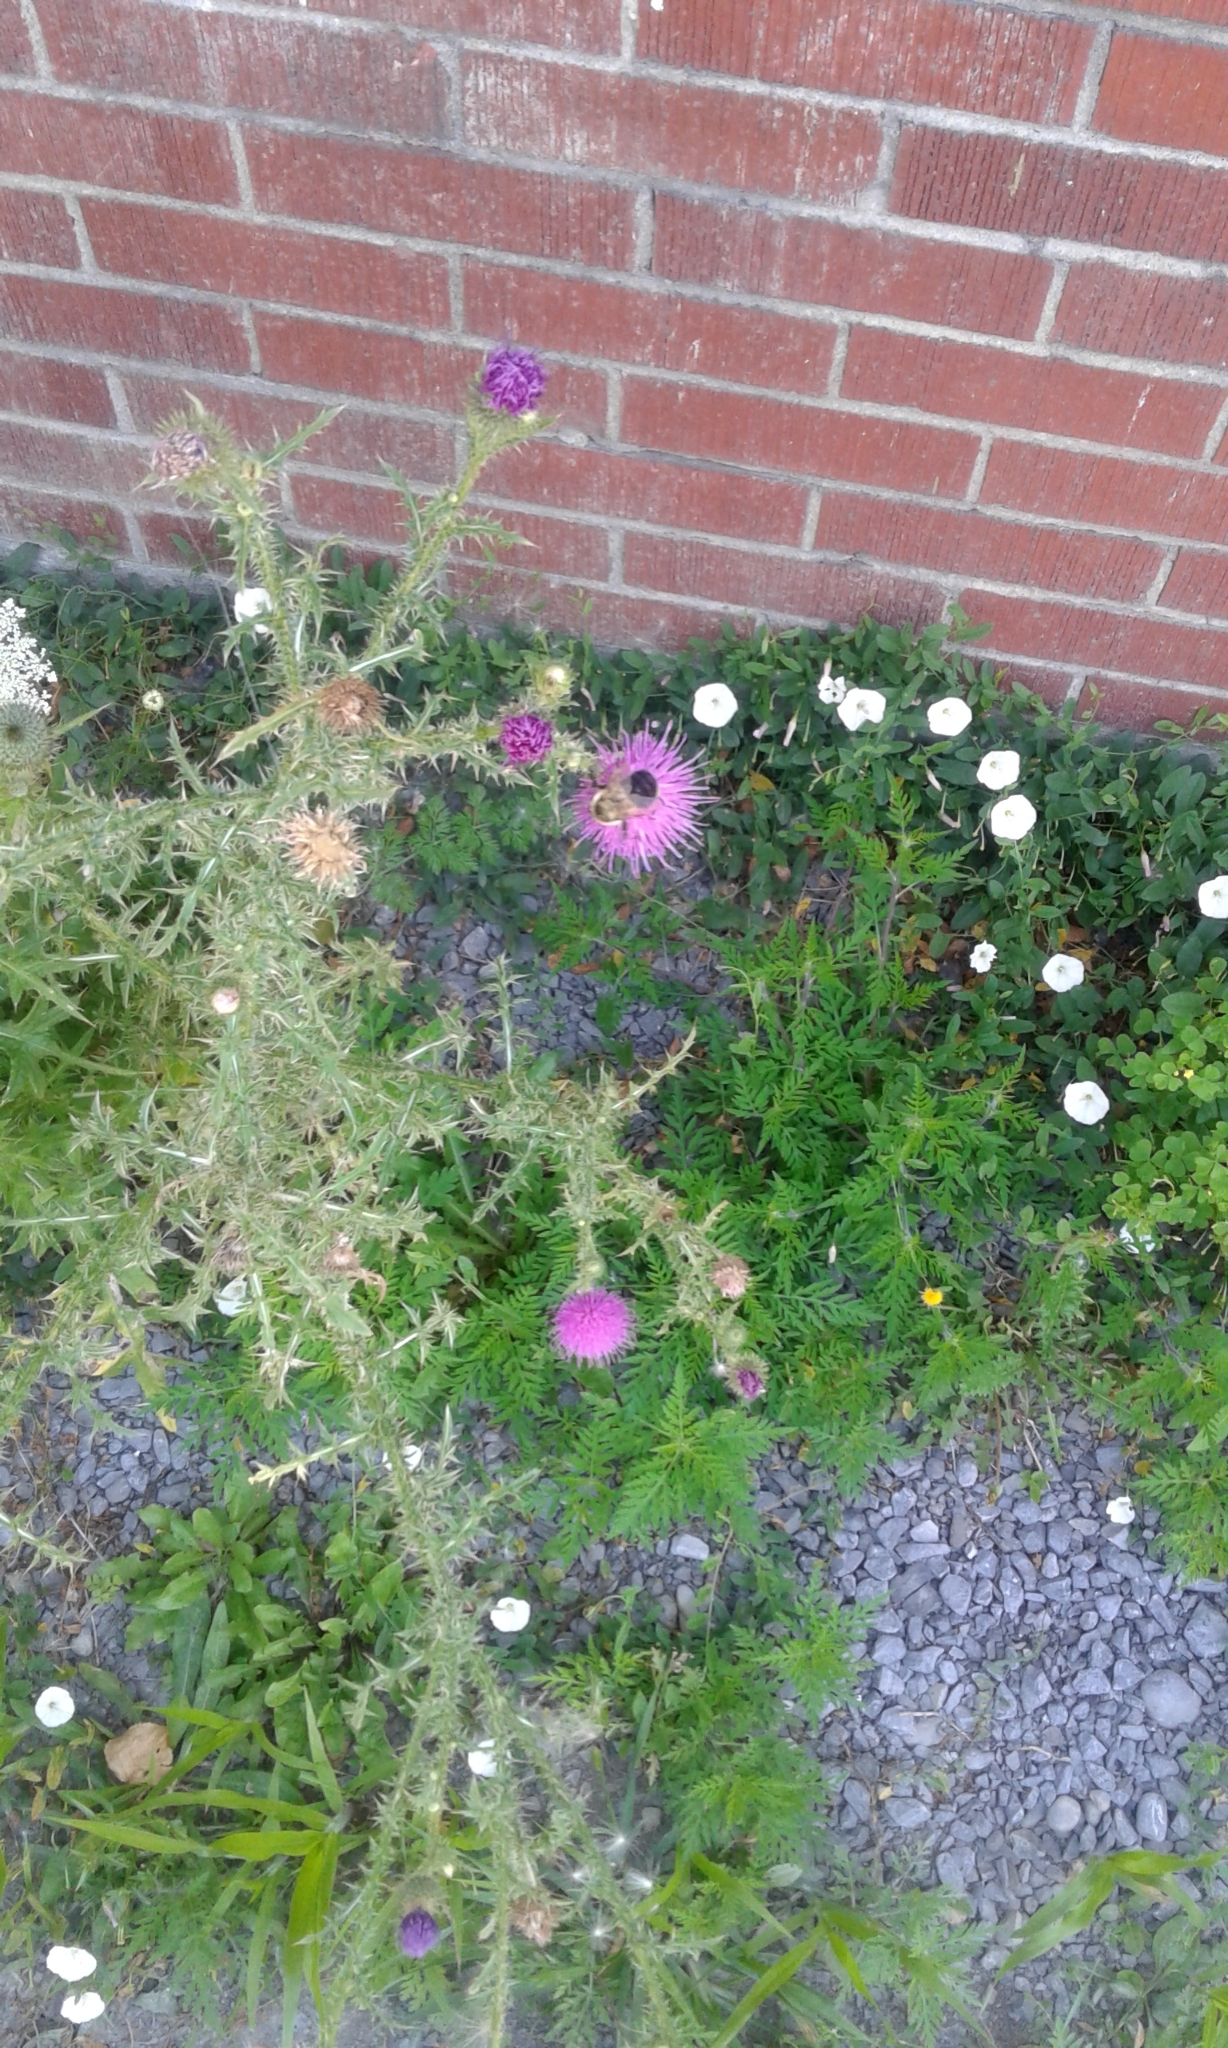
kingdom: Plantae
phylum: Tracheophyta
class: Magnoliopsida
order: Asterales
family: Asteraceae
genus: Carduus
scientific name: Carduus acanthoides
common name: Plumeless thistle
